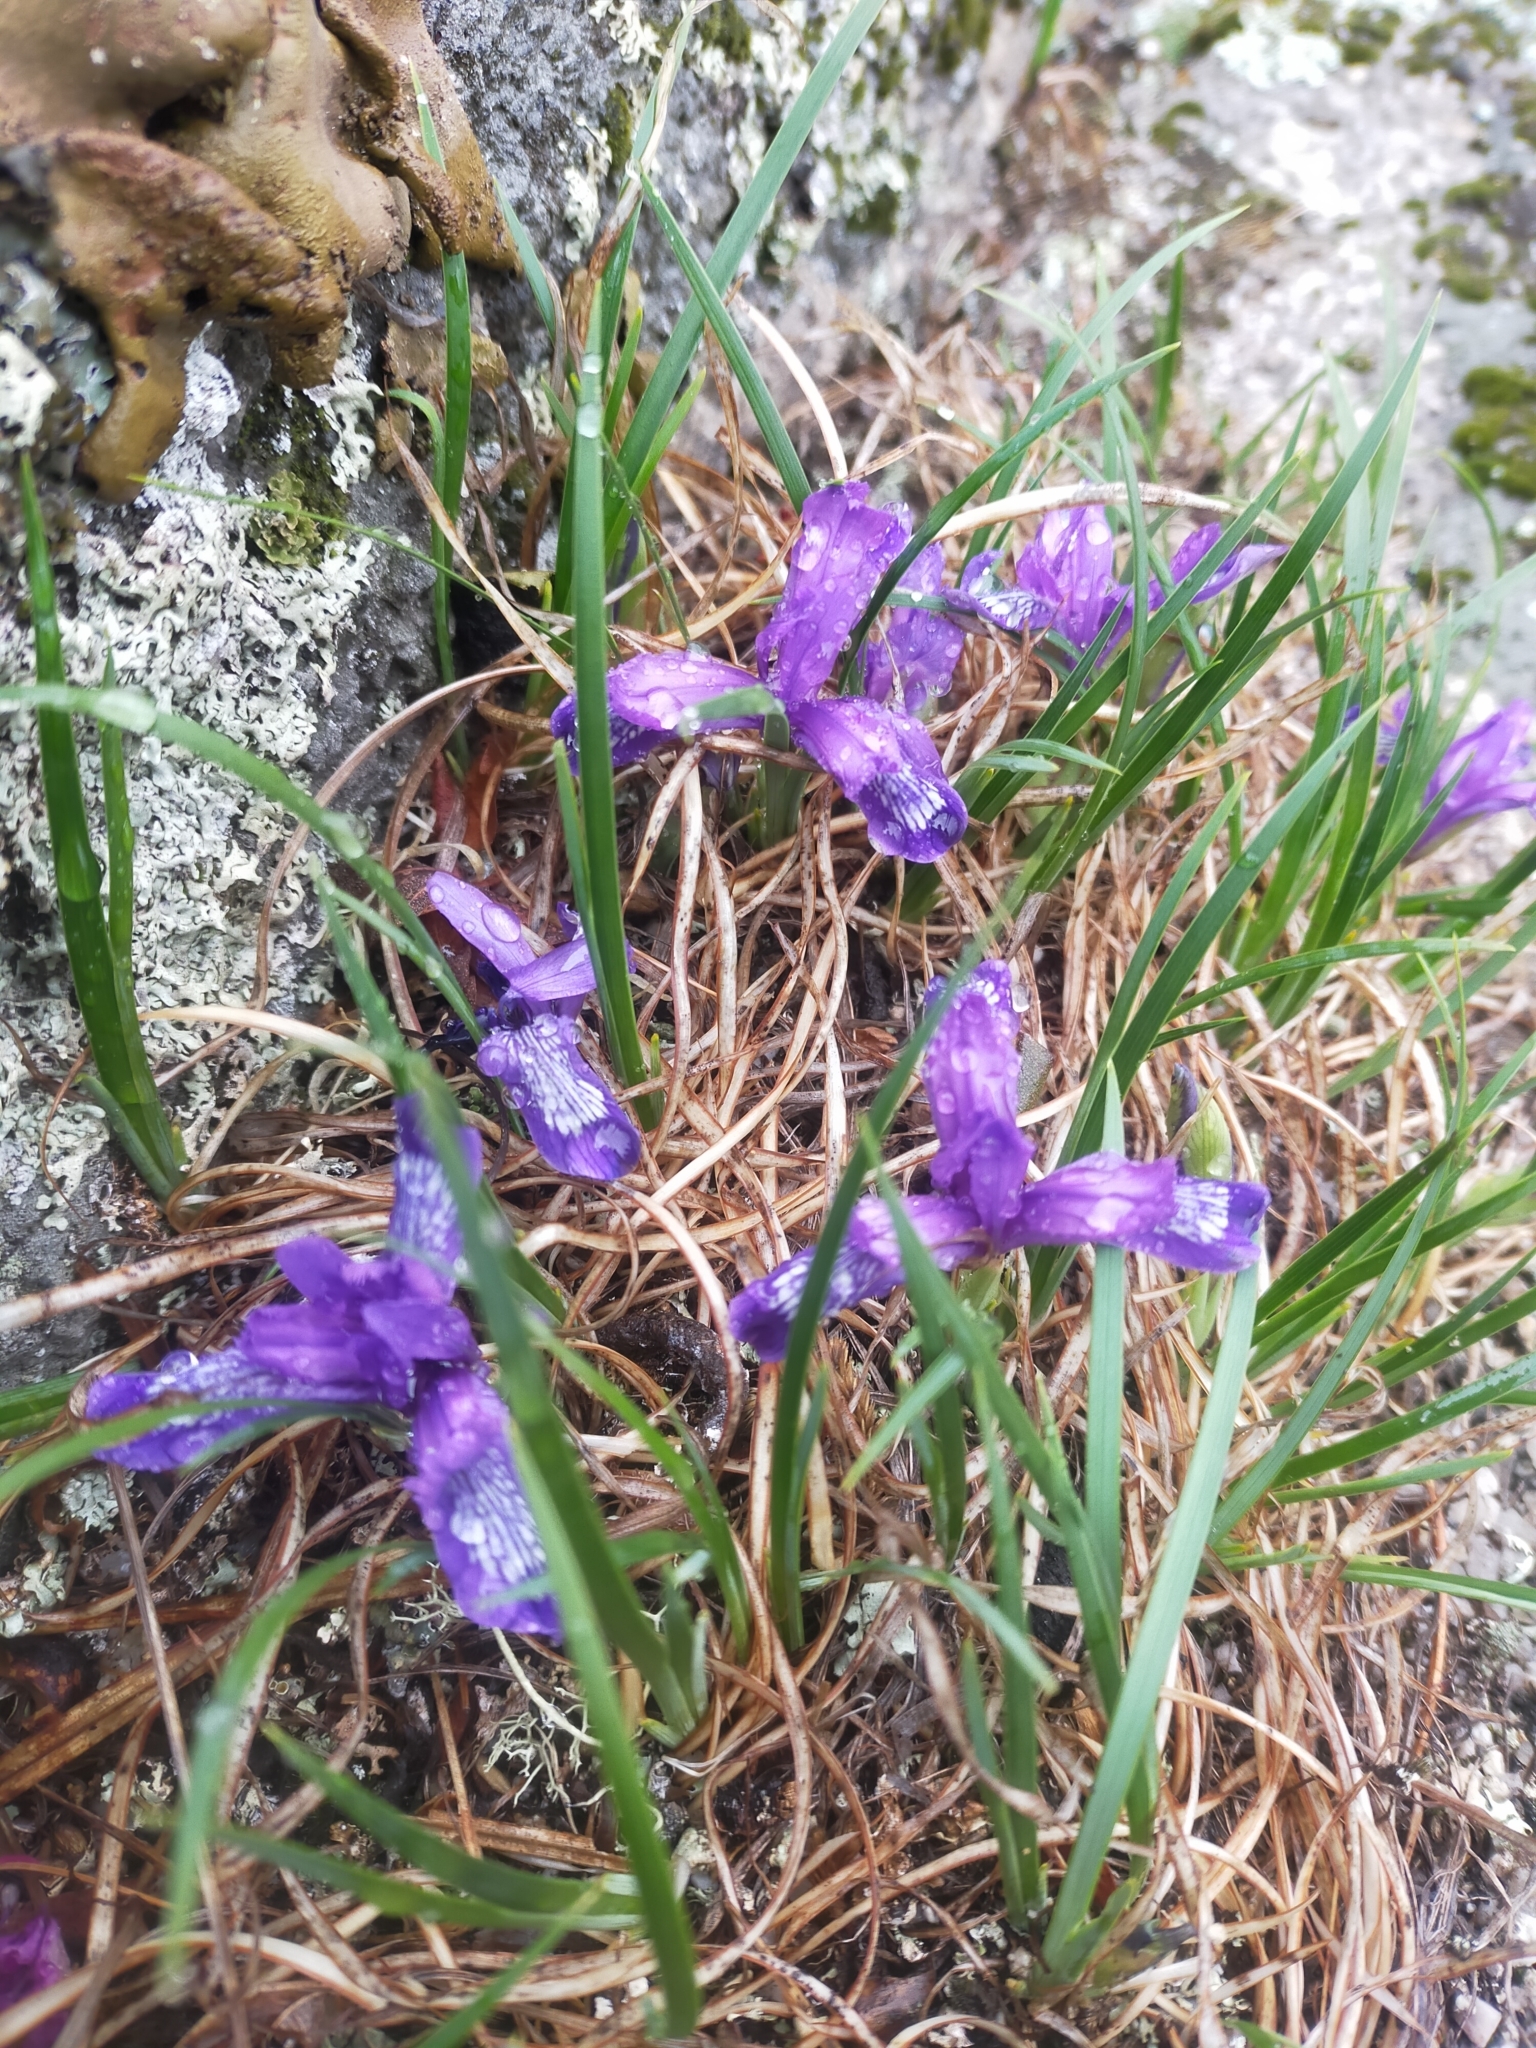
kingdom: Plantae
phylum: Tracheophyta
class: Liliopsida
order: Asparagales
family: Iridaceae
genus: Iris
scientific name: Iris uniflora
